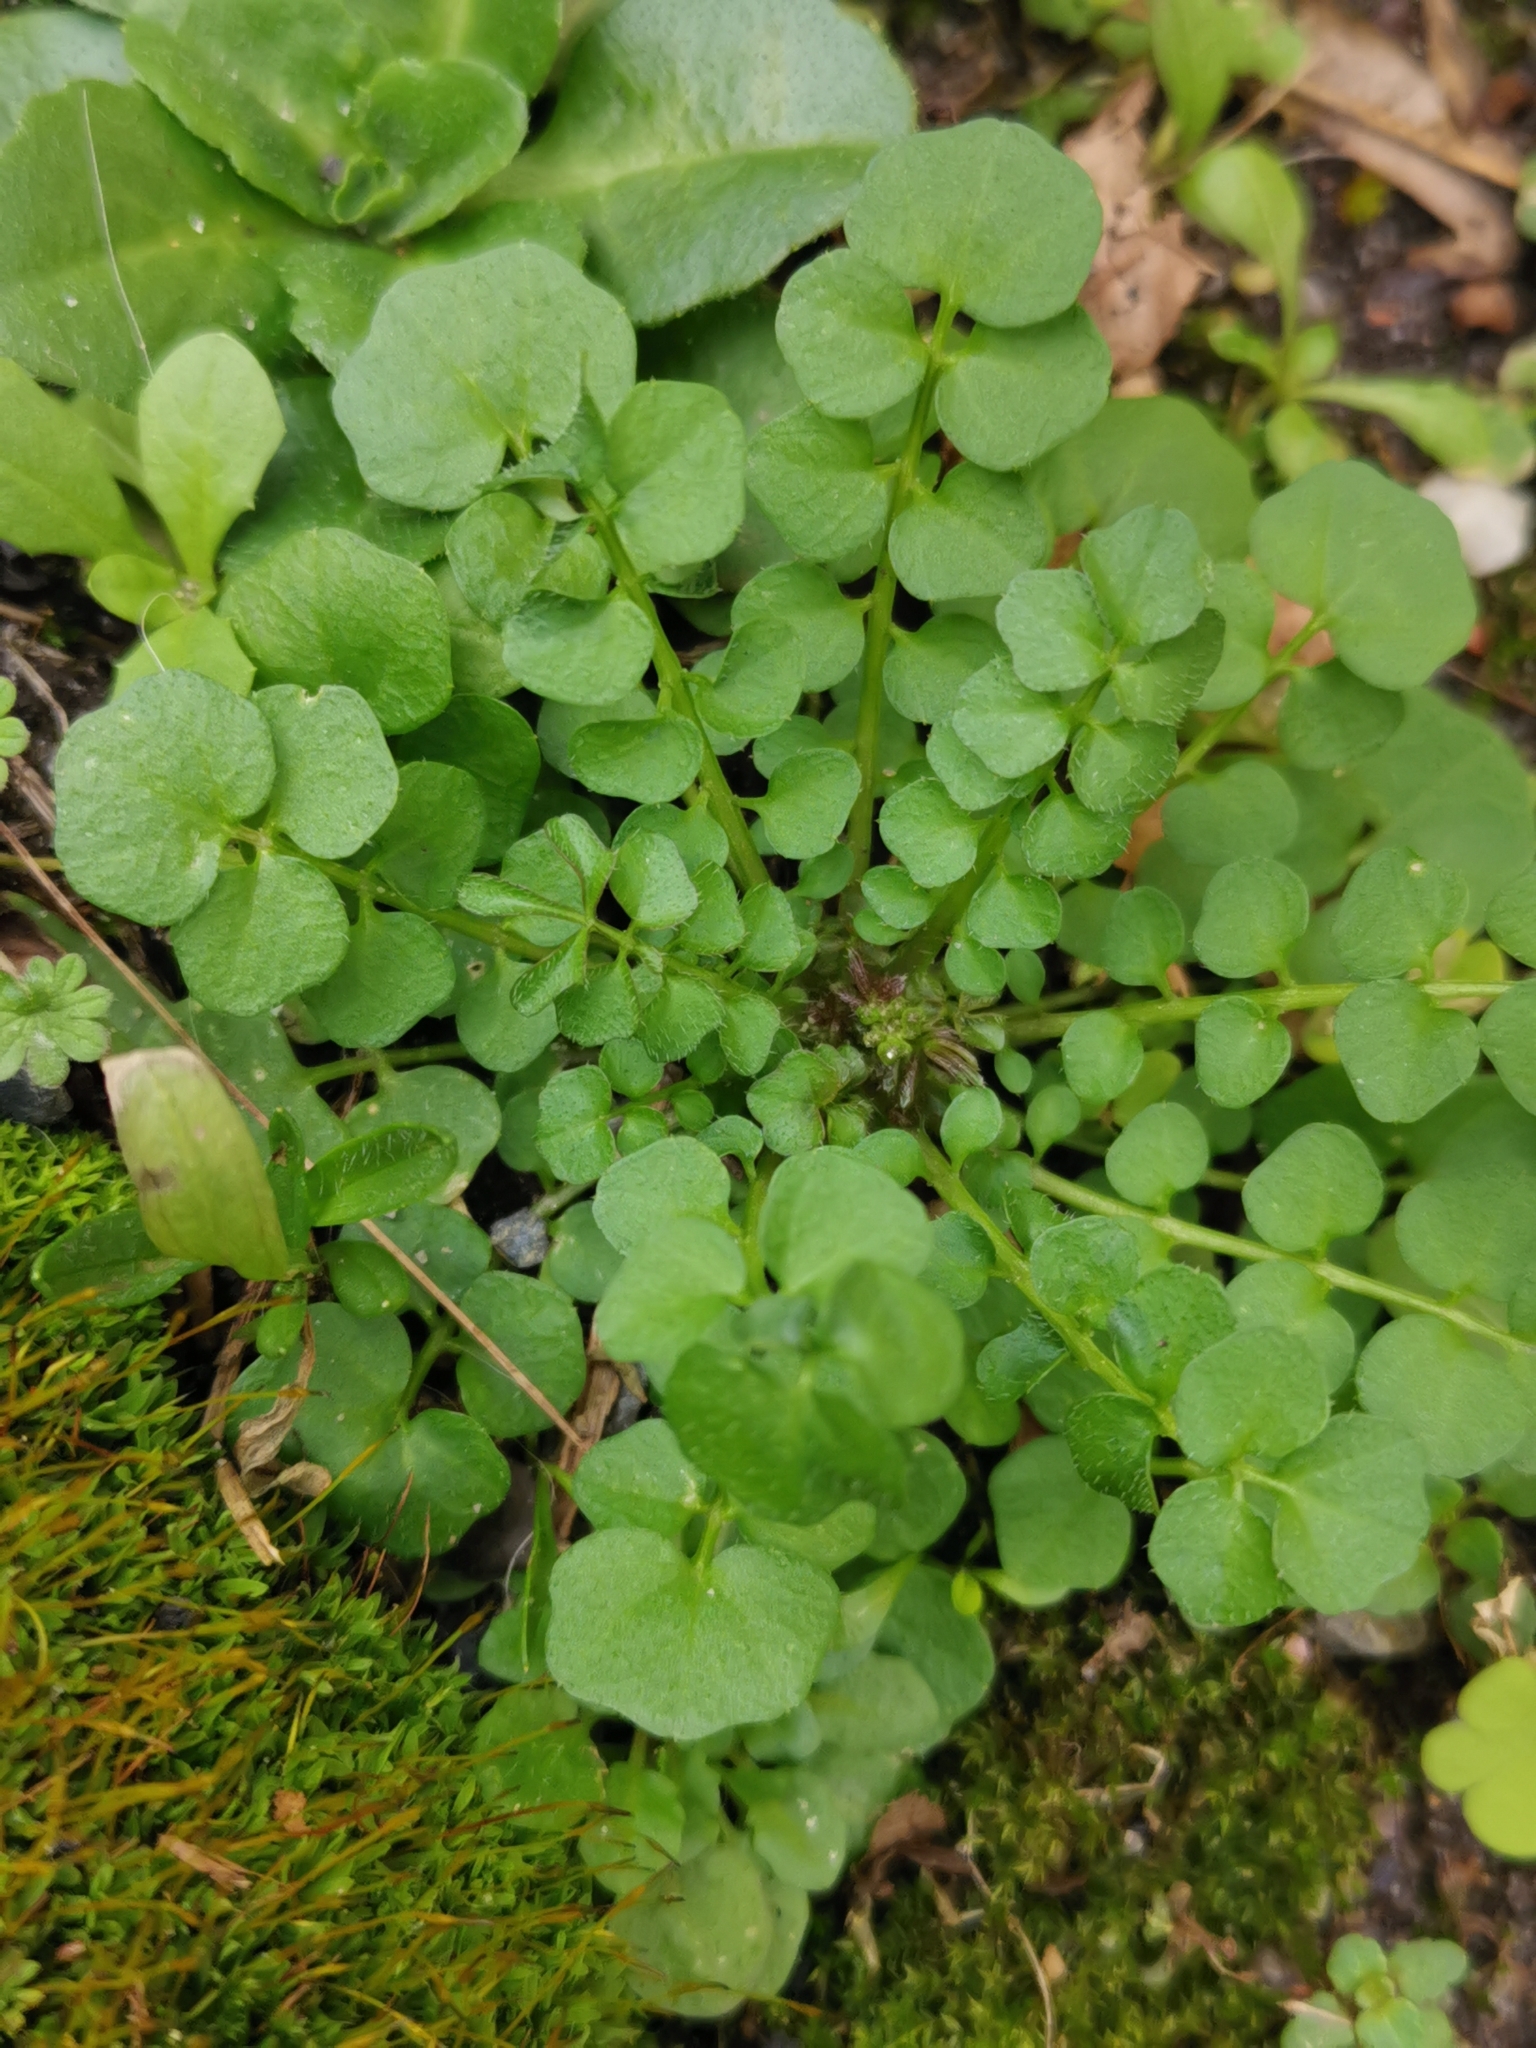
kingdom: Plantae
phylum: Tracheophyta
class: Magnoliopsida
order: Brassicales
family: Brassicaceae
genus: Cardamine
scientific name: Cardamine hirsuta
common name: Hairy bittercress
